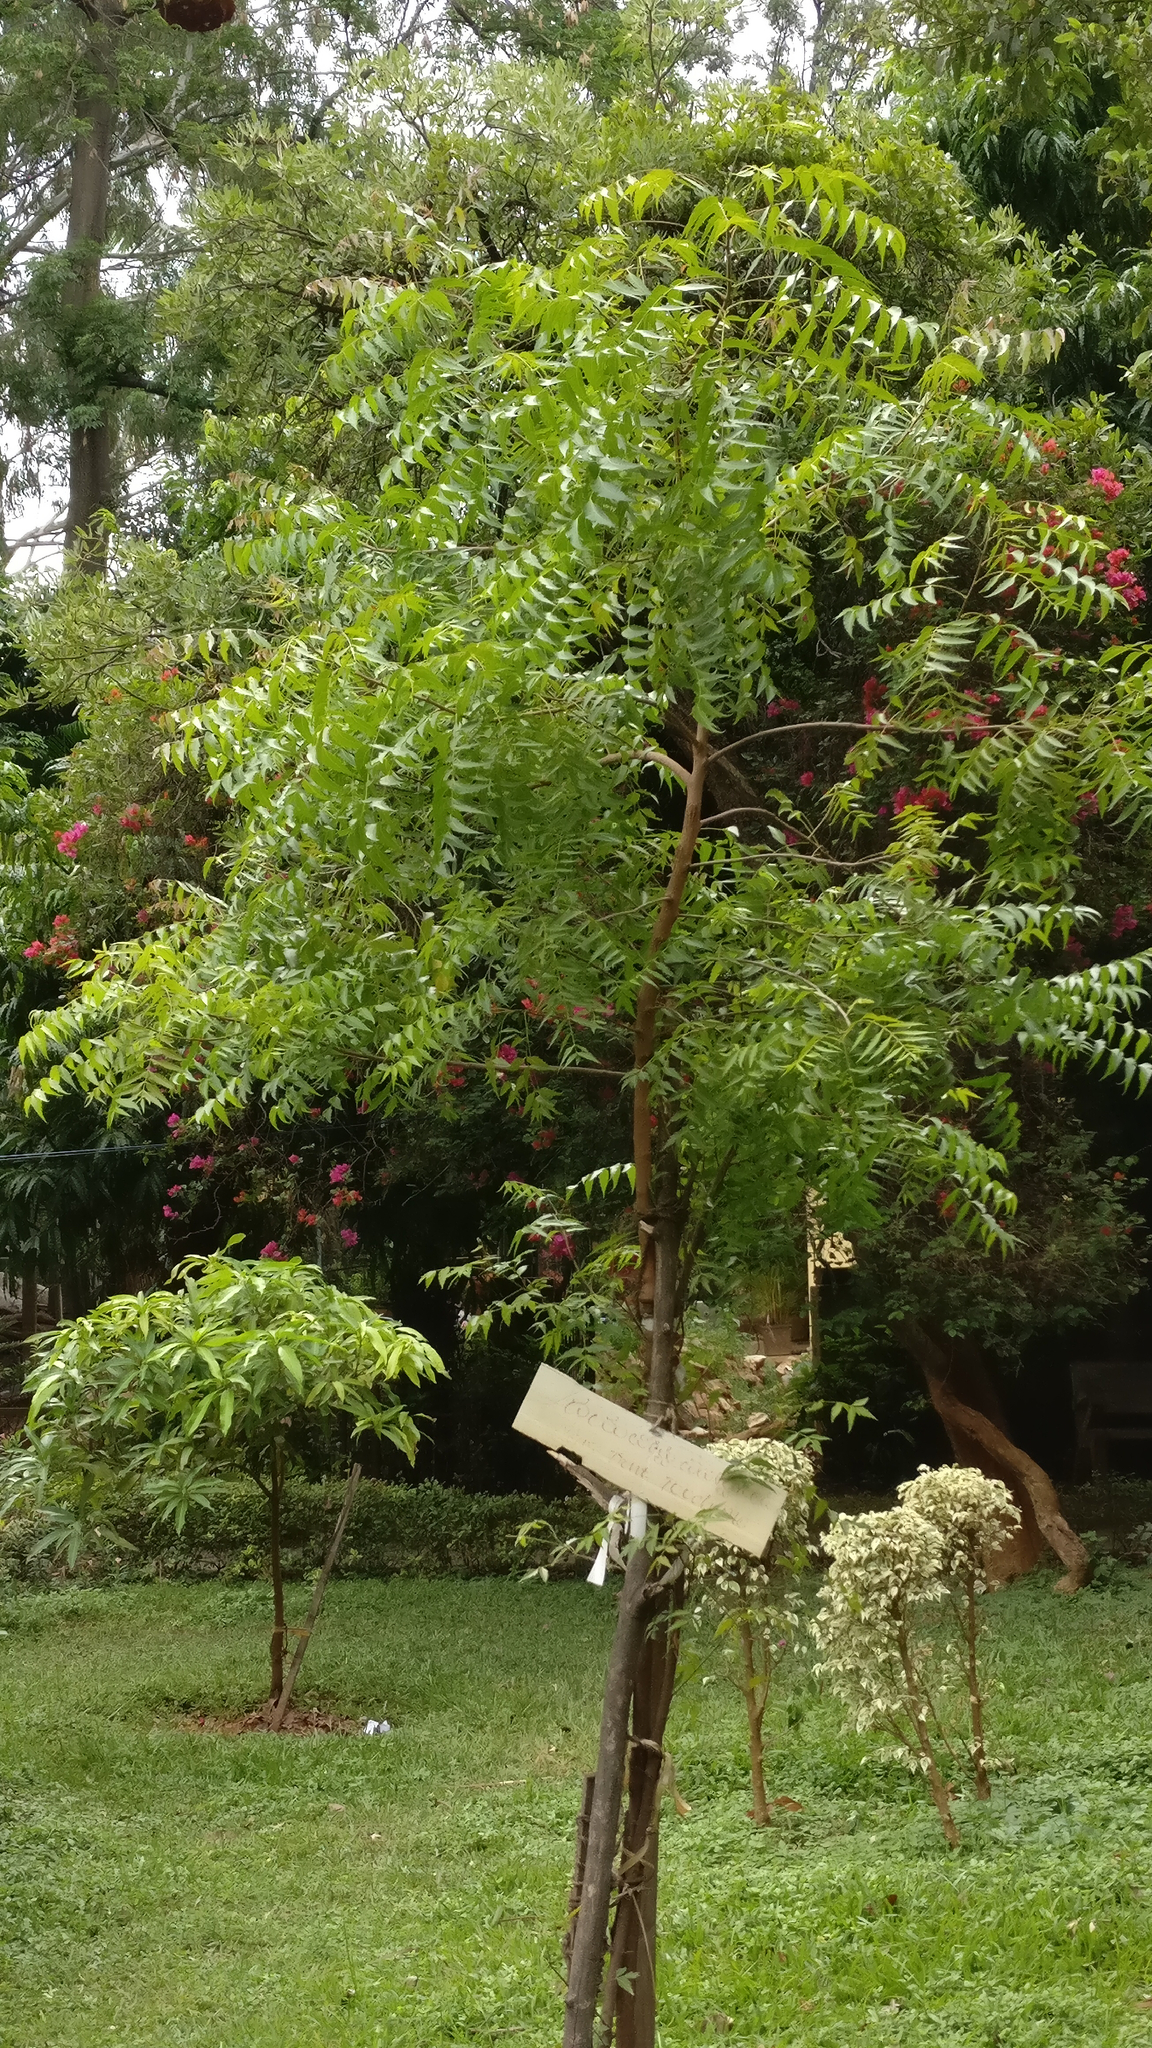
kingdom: Plantae
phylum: Tracheophyta
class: Magnoliopsida
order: Sapindales
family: Meliaceae
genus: Azadirachta
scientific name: Azadirachta indica
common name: Neem
